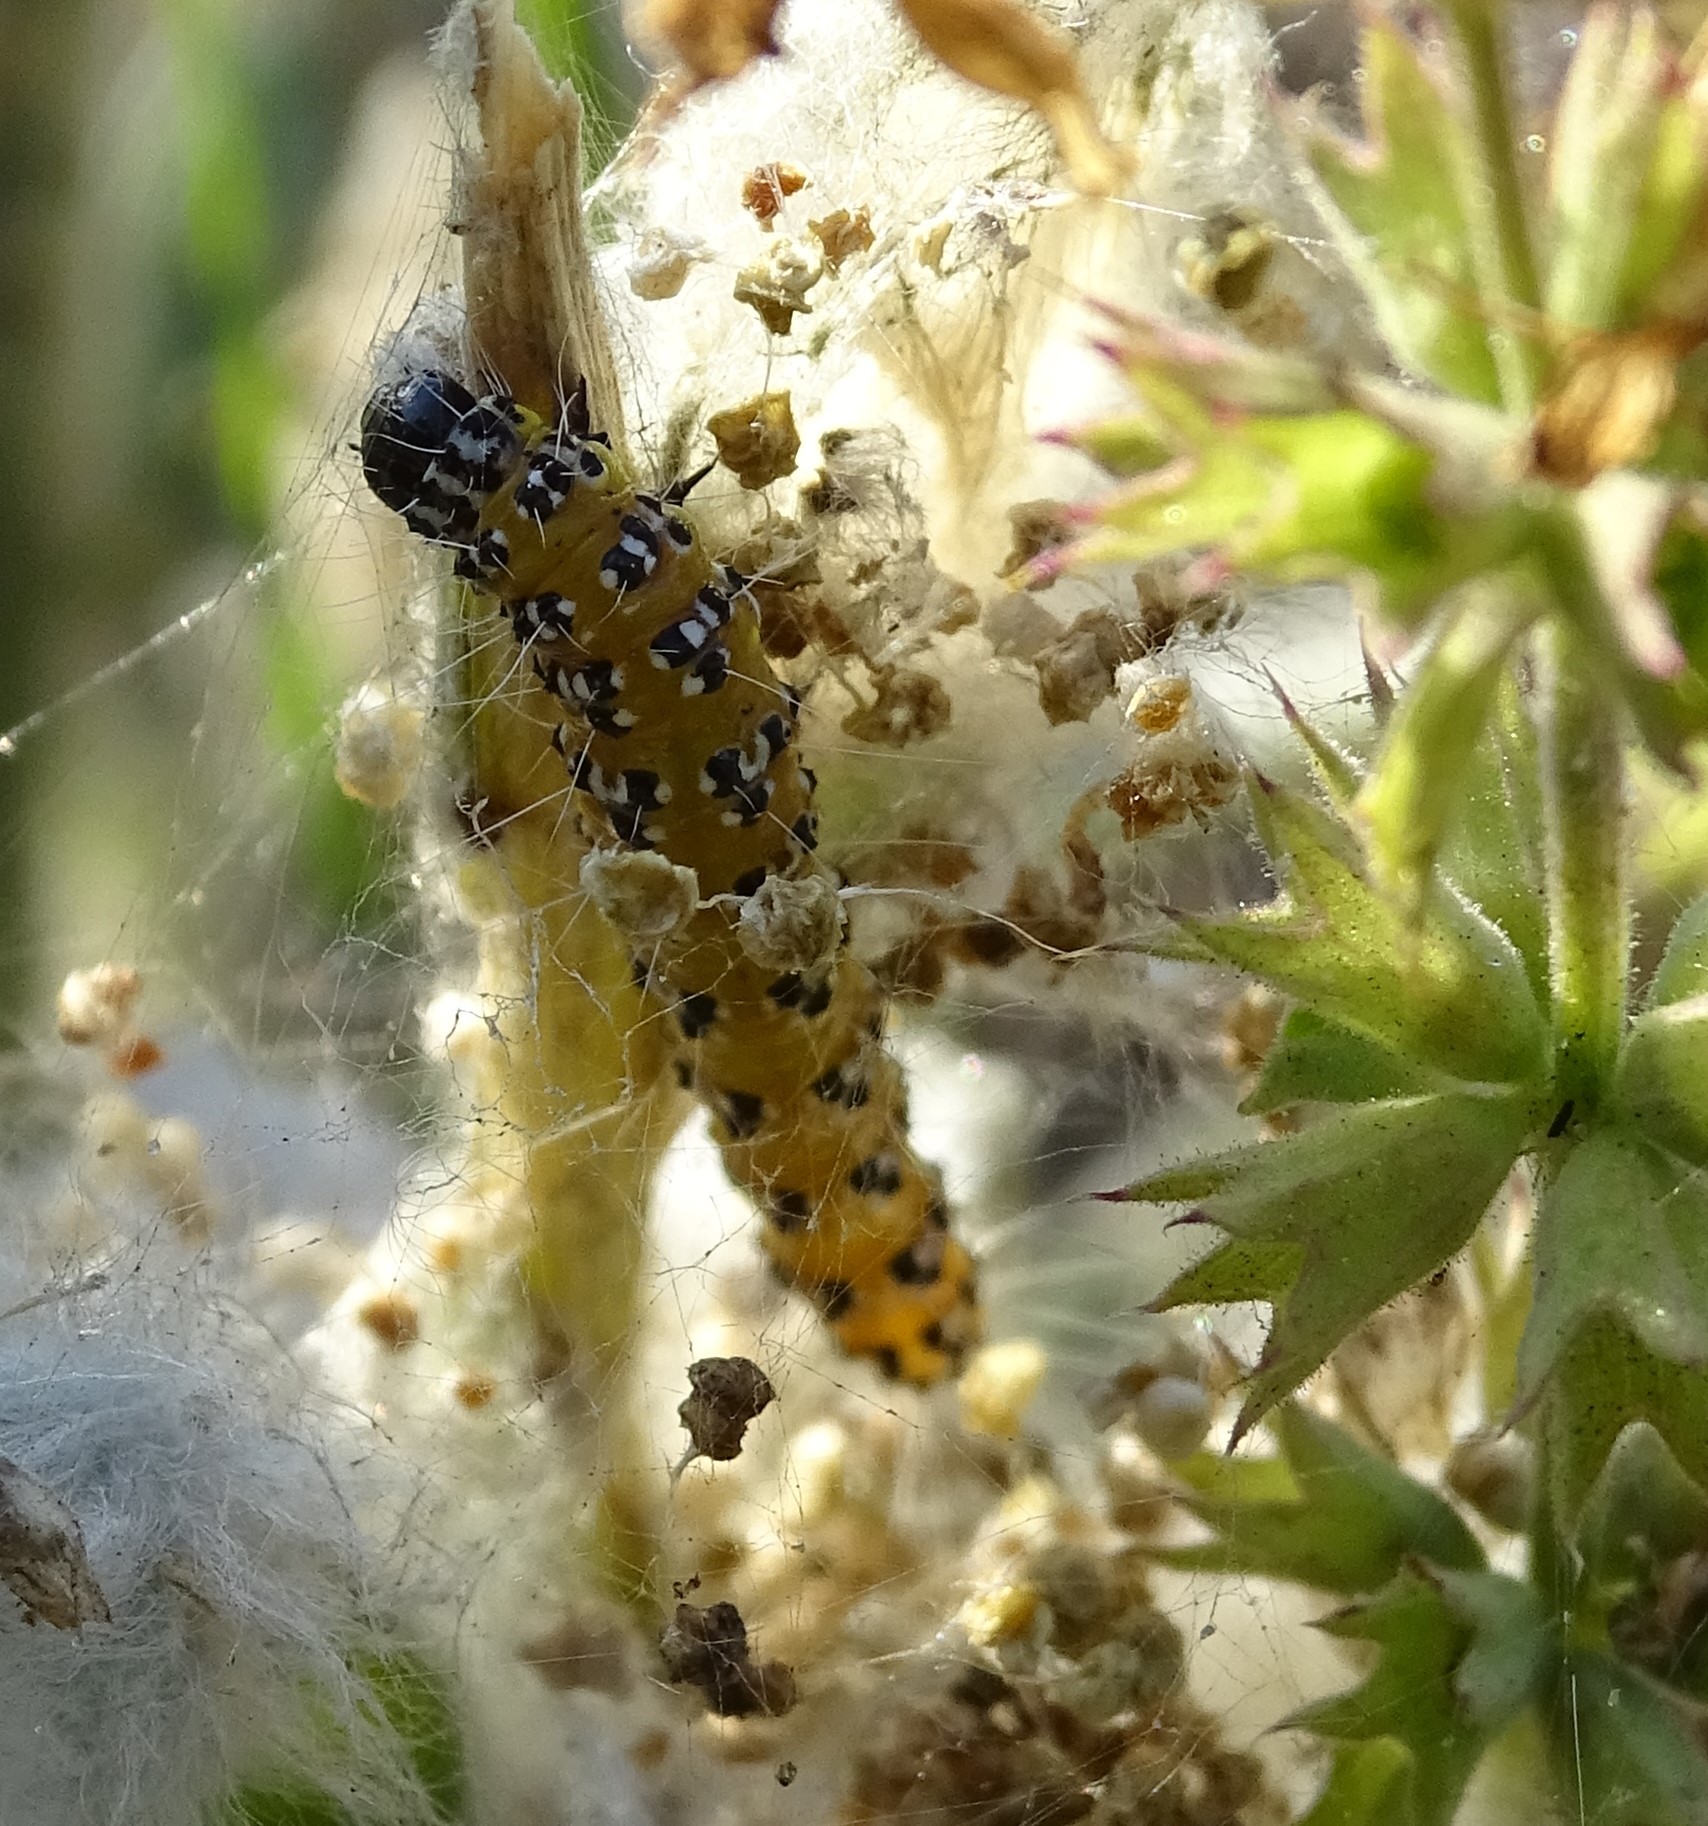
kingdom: Animalia
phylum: Arthropoda
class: Insecta
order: Lepidoptera
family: Crambidae
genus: Uresiphita
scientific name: Uresiphita reversalis
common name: Genista broom moth
